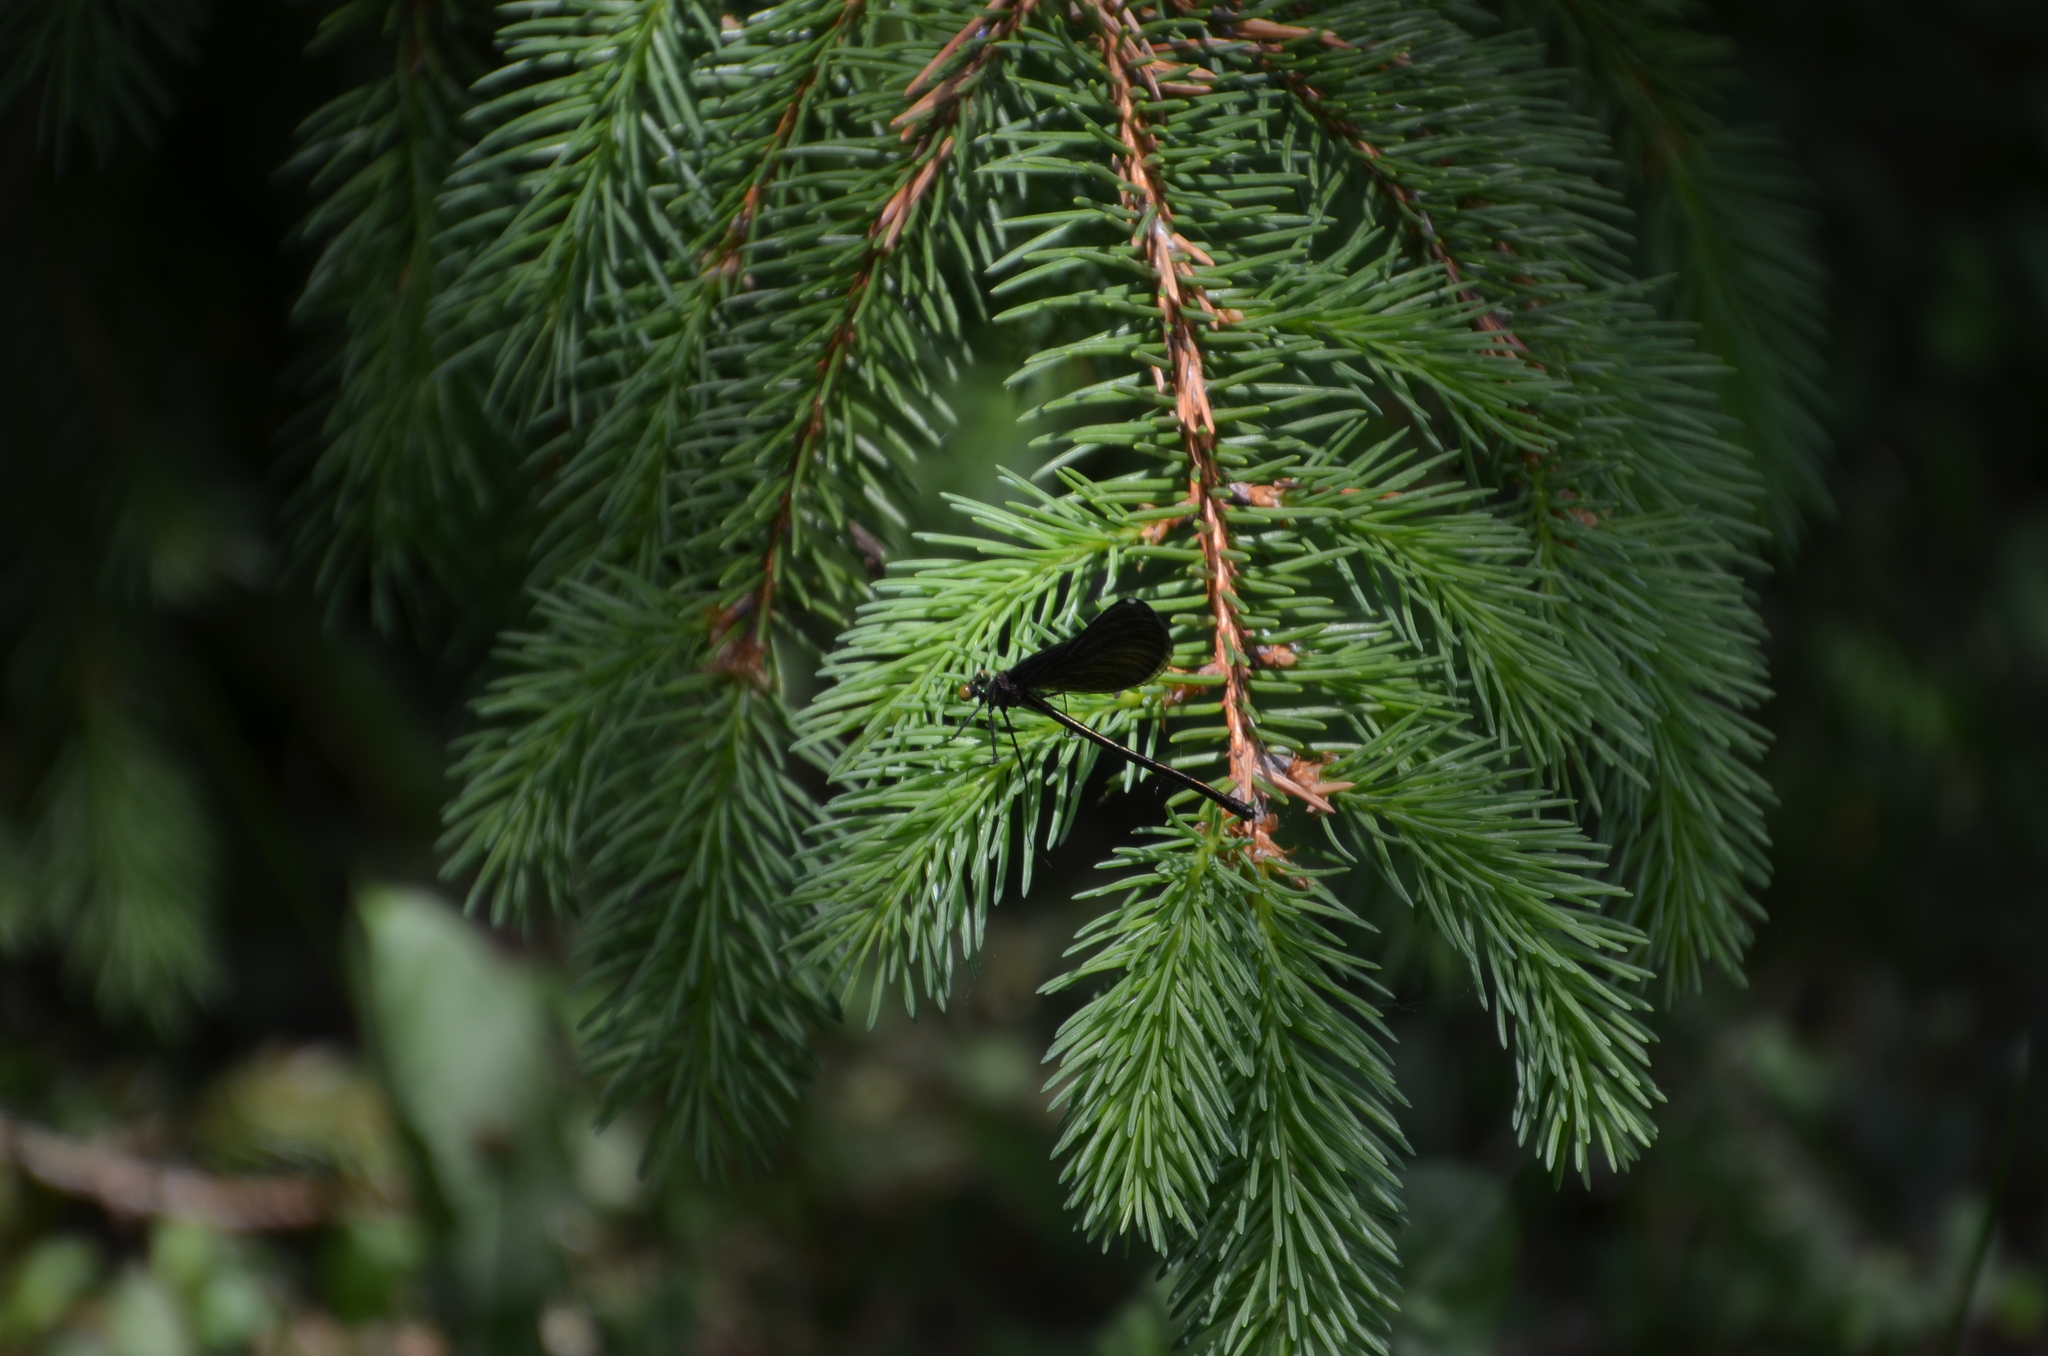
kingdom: Animalia
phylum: Arthropoda
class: Insecta
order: Odonata
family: Calopterygidae
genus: Calopteryx
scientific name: Calopteryx maculata
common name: Ebony jewelwing
